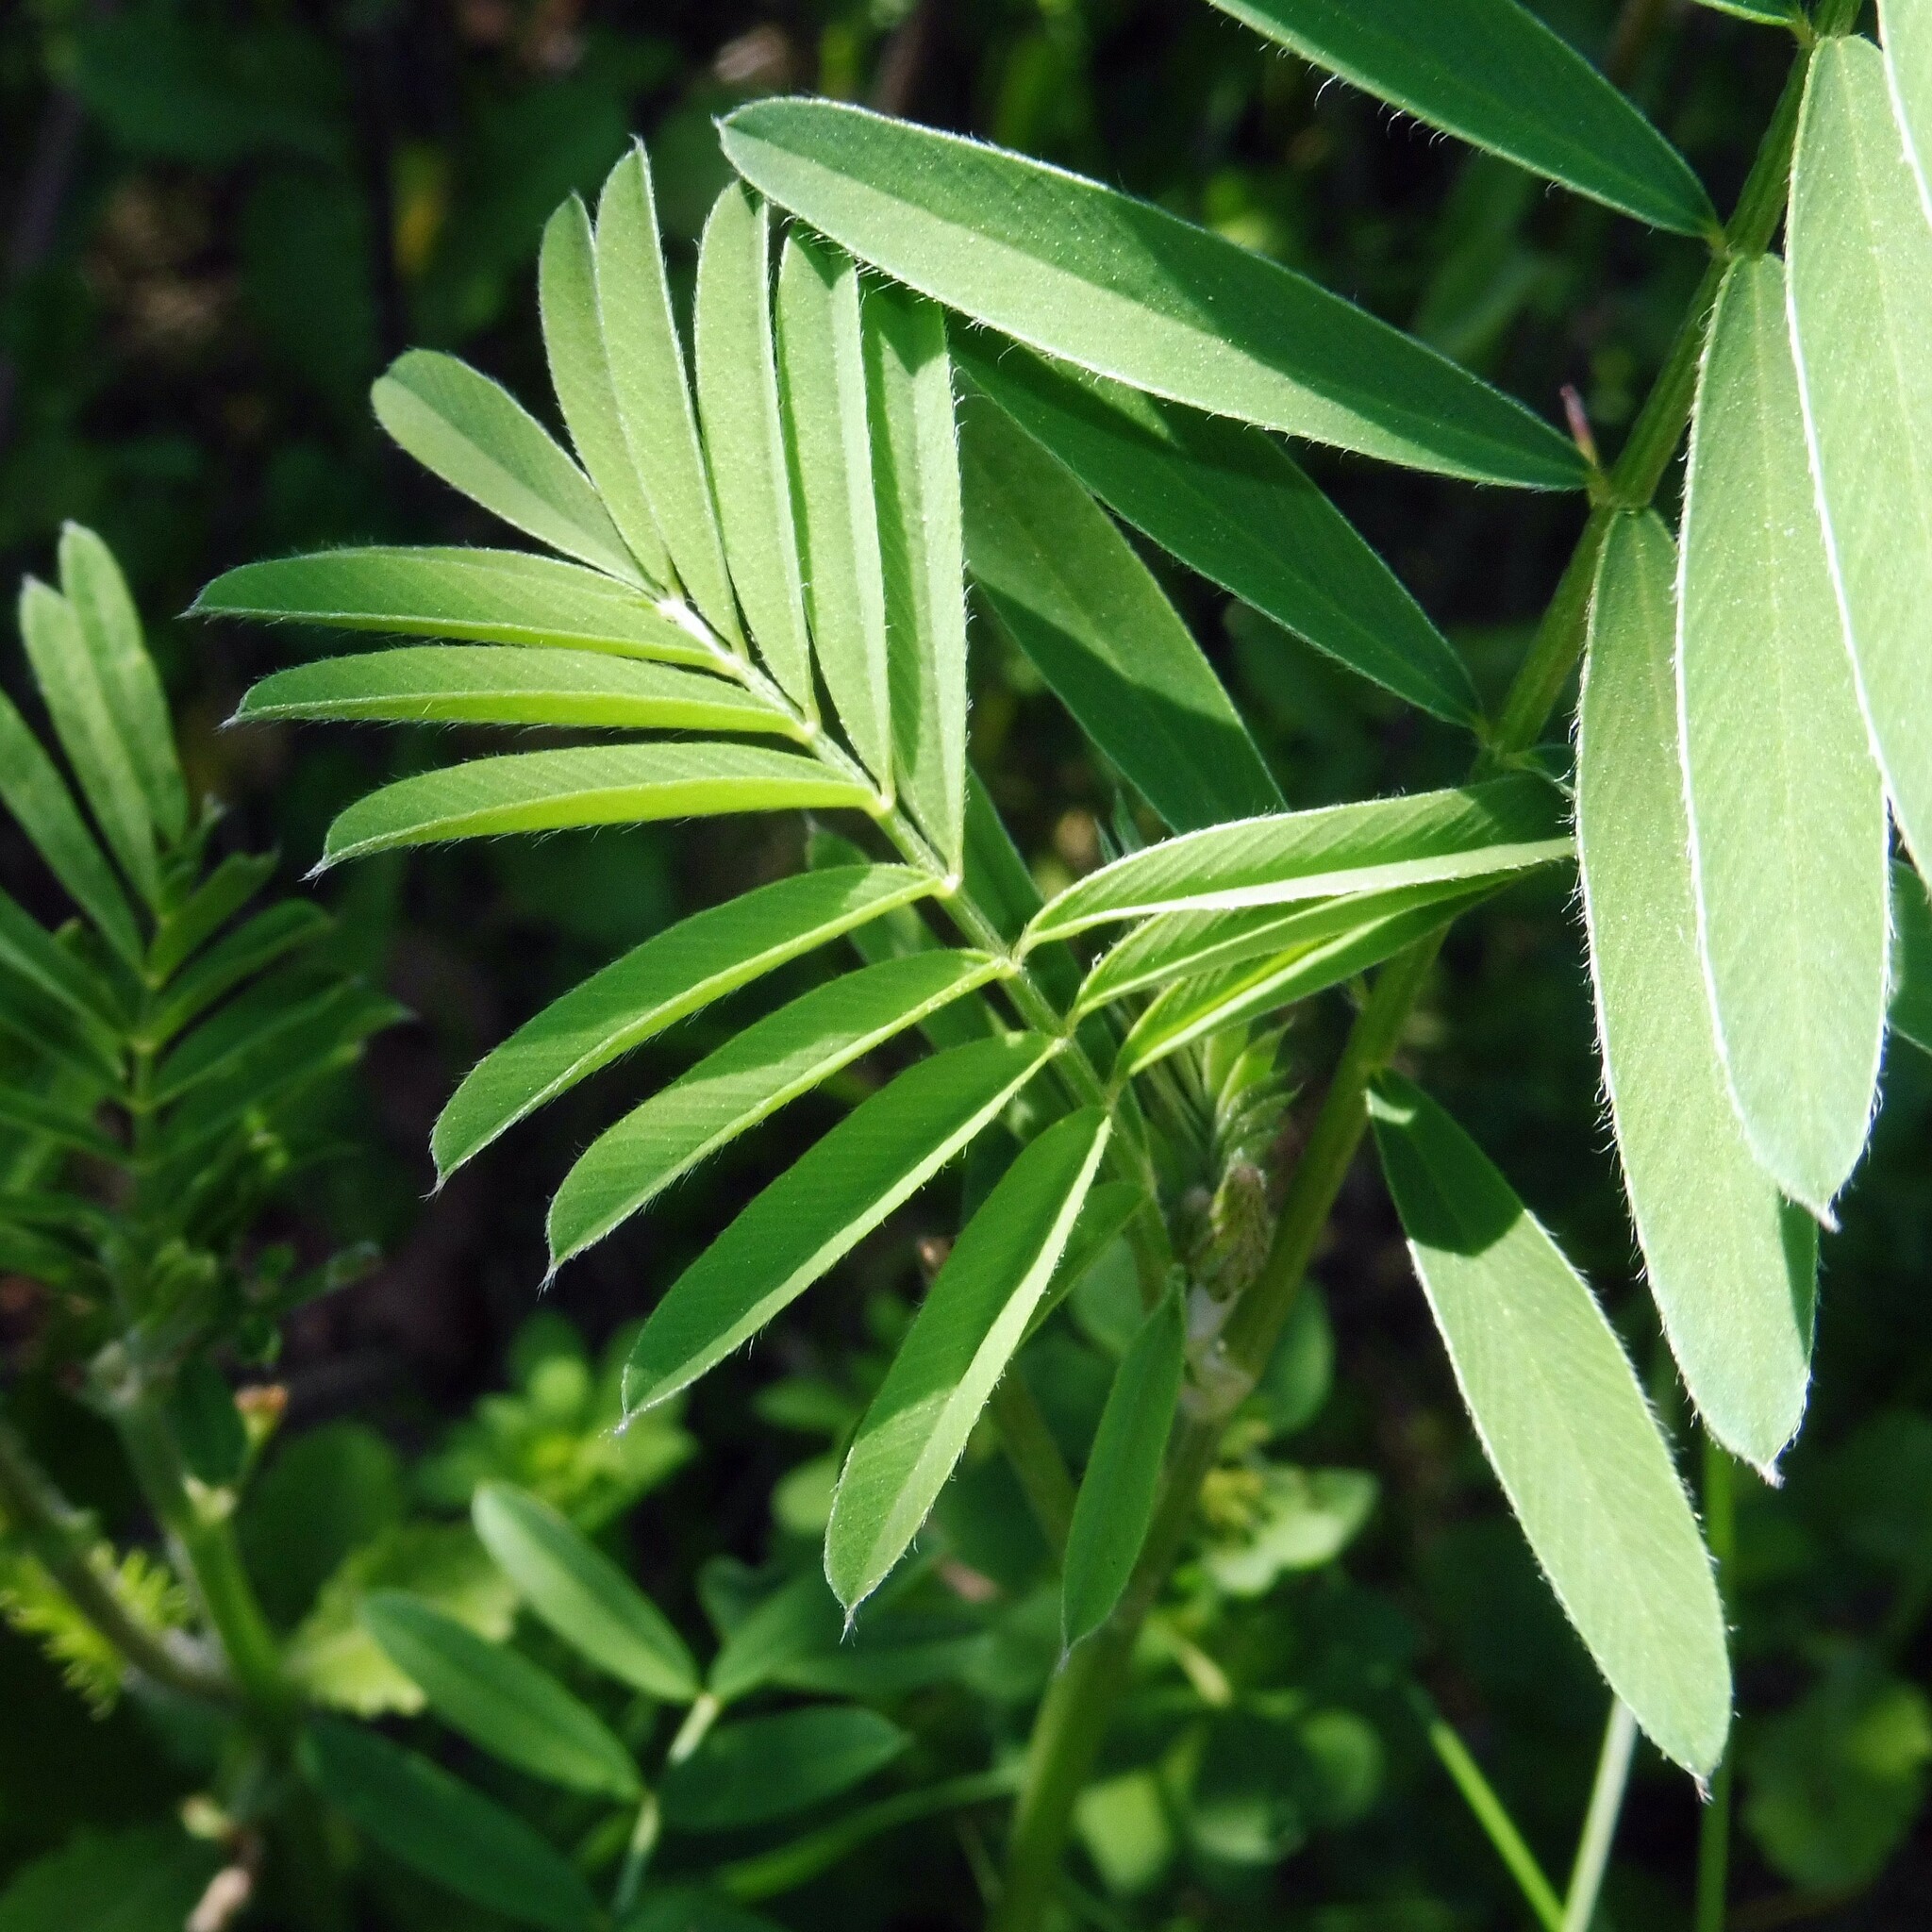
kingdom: Plantae
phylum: Tracheophyta
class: Magnoliopsida
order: Fabales
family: Fabaceae
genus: Onobrychis
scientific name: Onobrychis viciifolia
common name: Sainfoin
